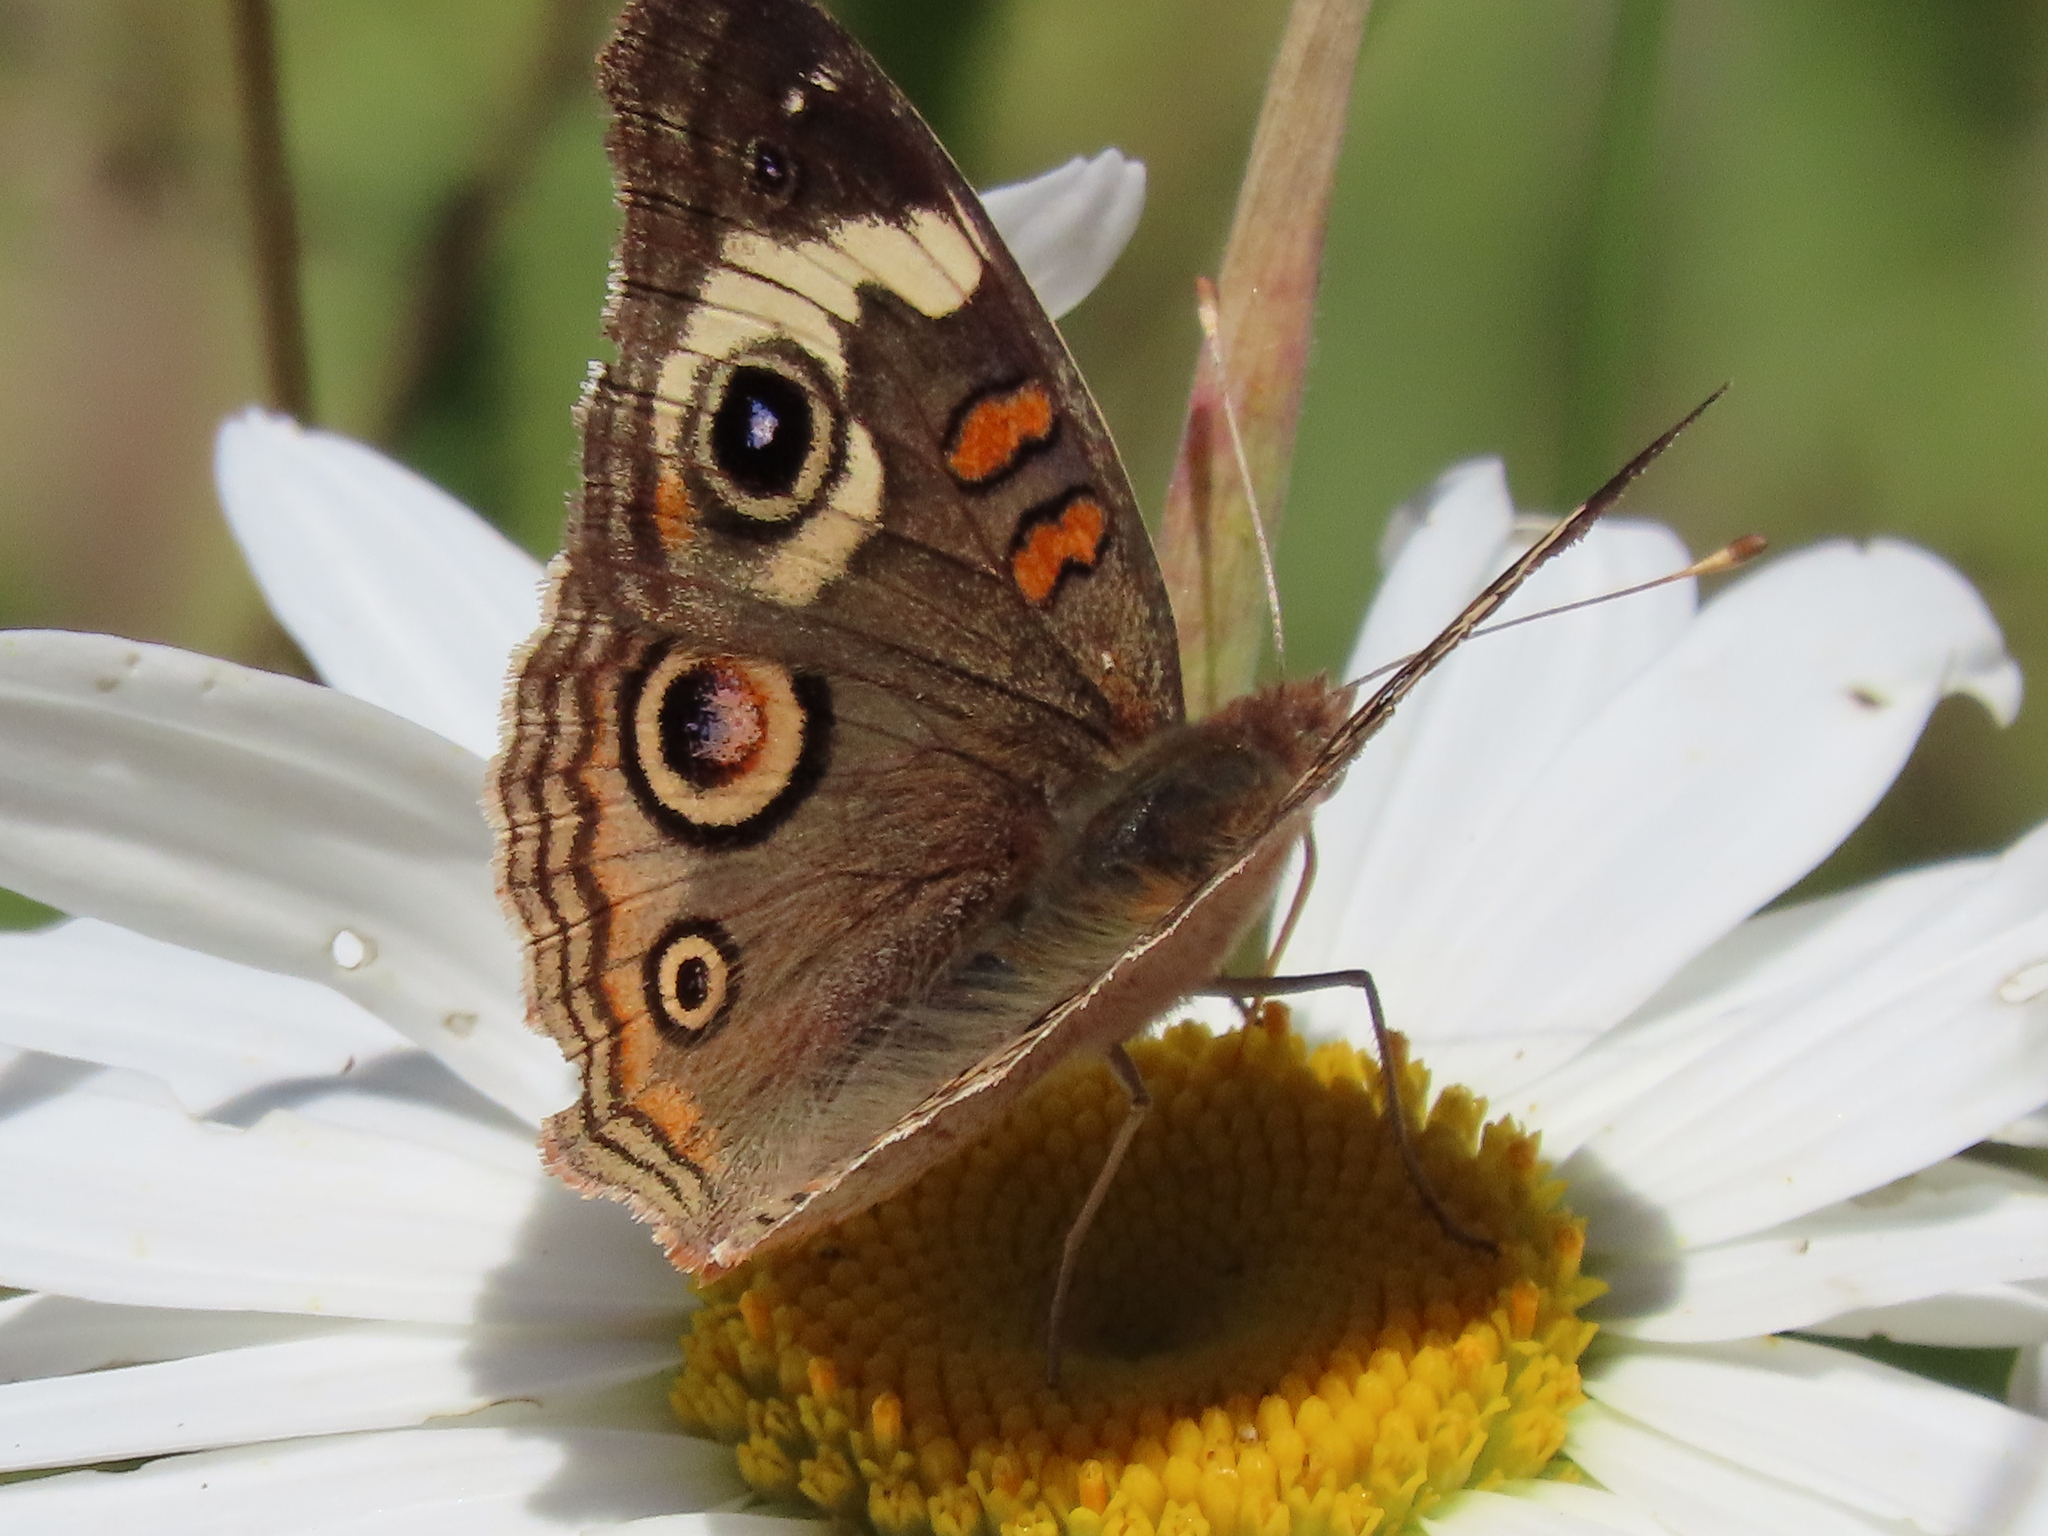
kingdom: Animalia
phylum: Arthropoda
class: Insecta
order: Lepidoptera
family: Nymphalidae
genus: Junonia
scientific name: Junonia grisea
